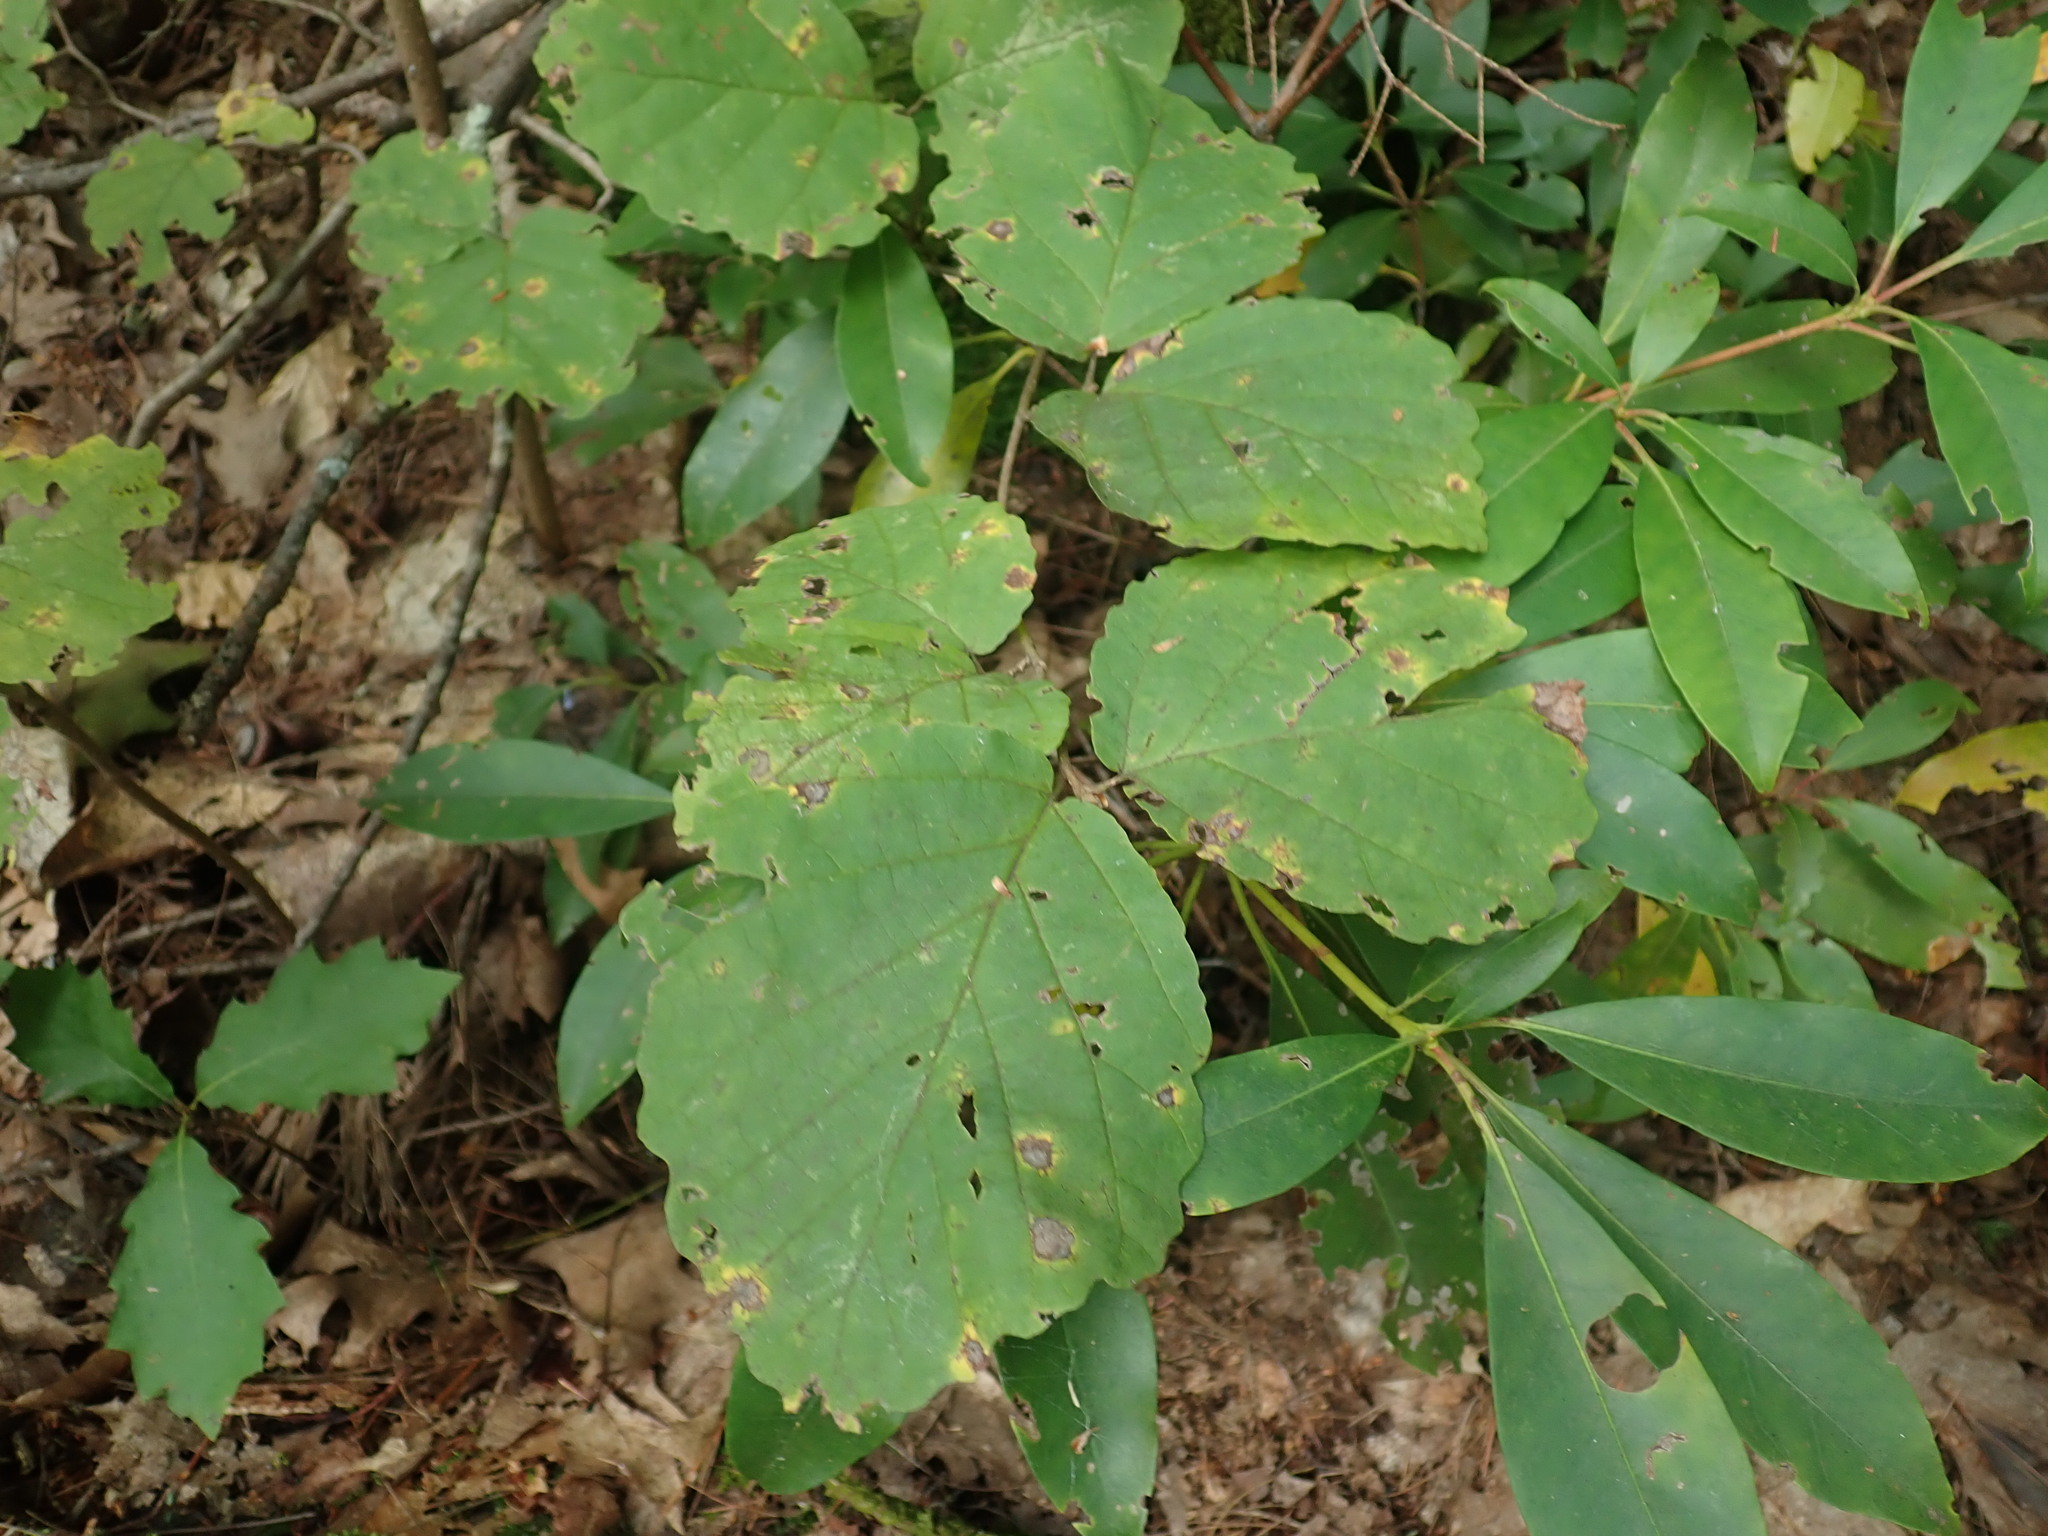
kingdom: Plantae
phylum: Tracheophyta
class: Magnoliopsida
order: Saxifragales
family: Hamamelidaceae
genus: Hamamelis
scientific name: Hamamelis virginiana
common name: Witch-hazel
